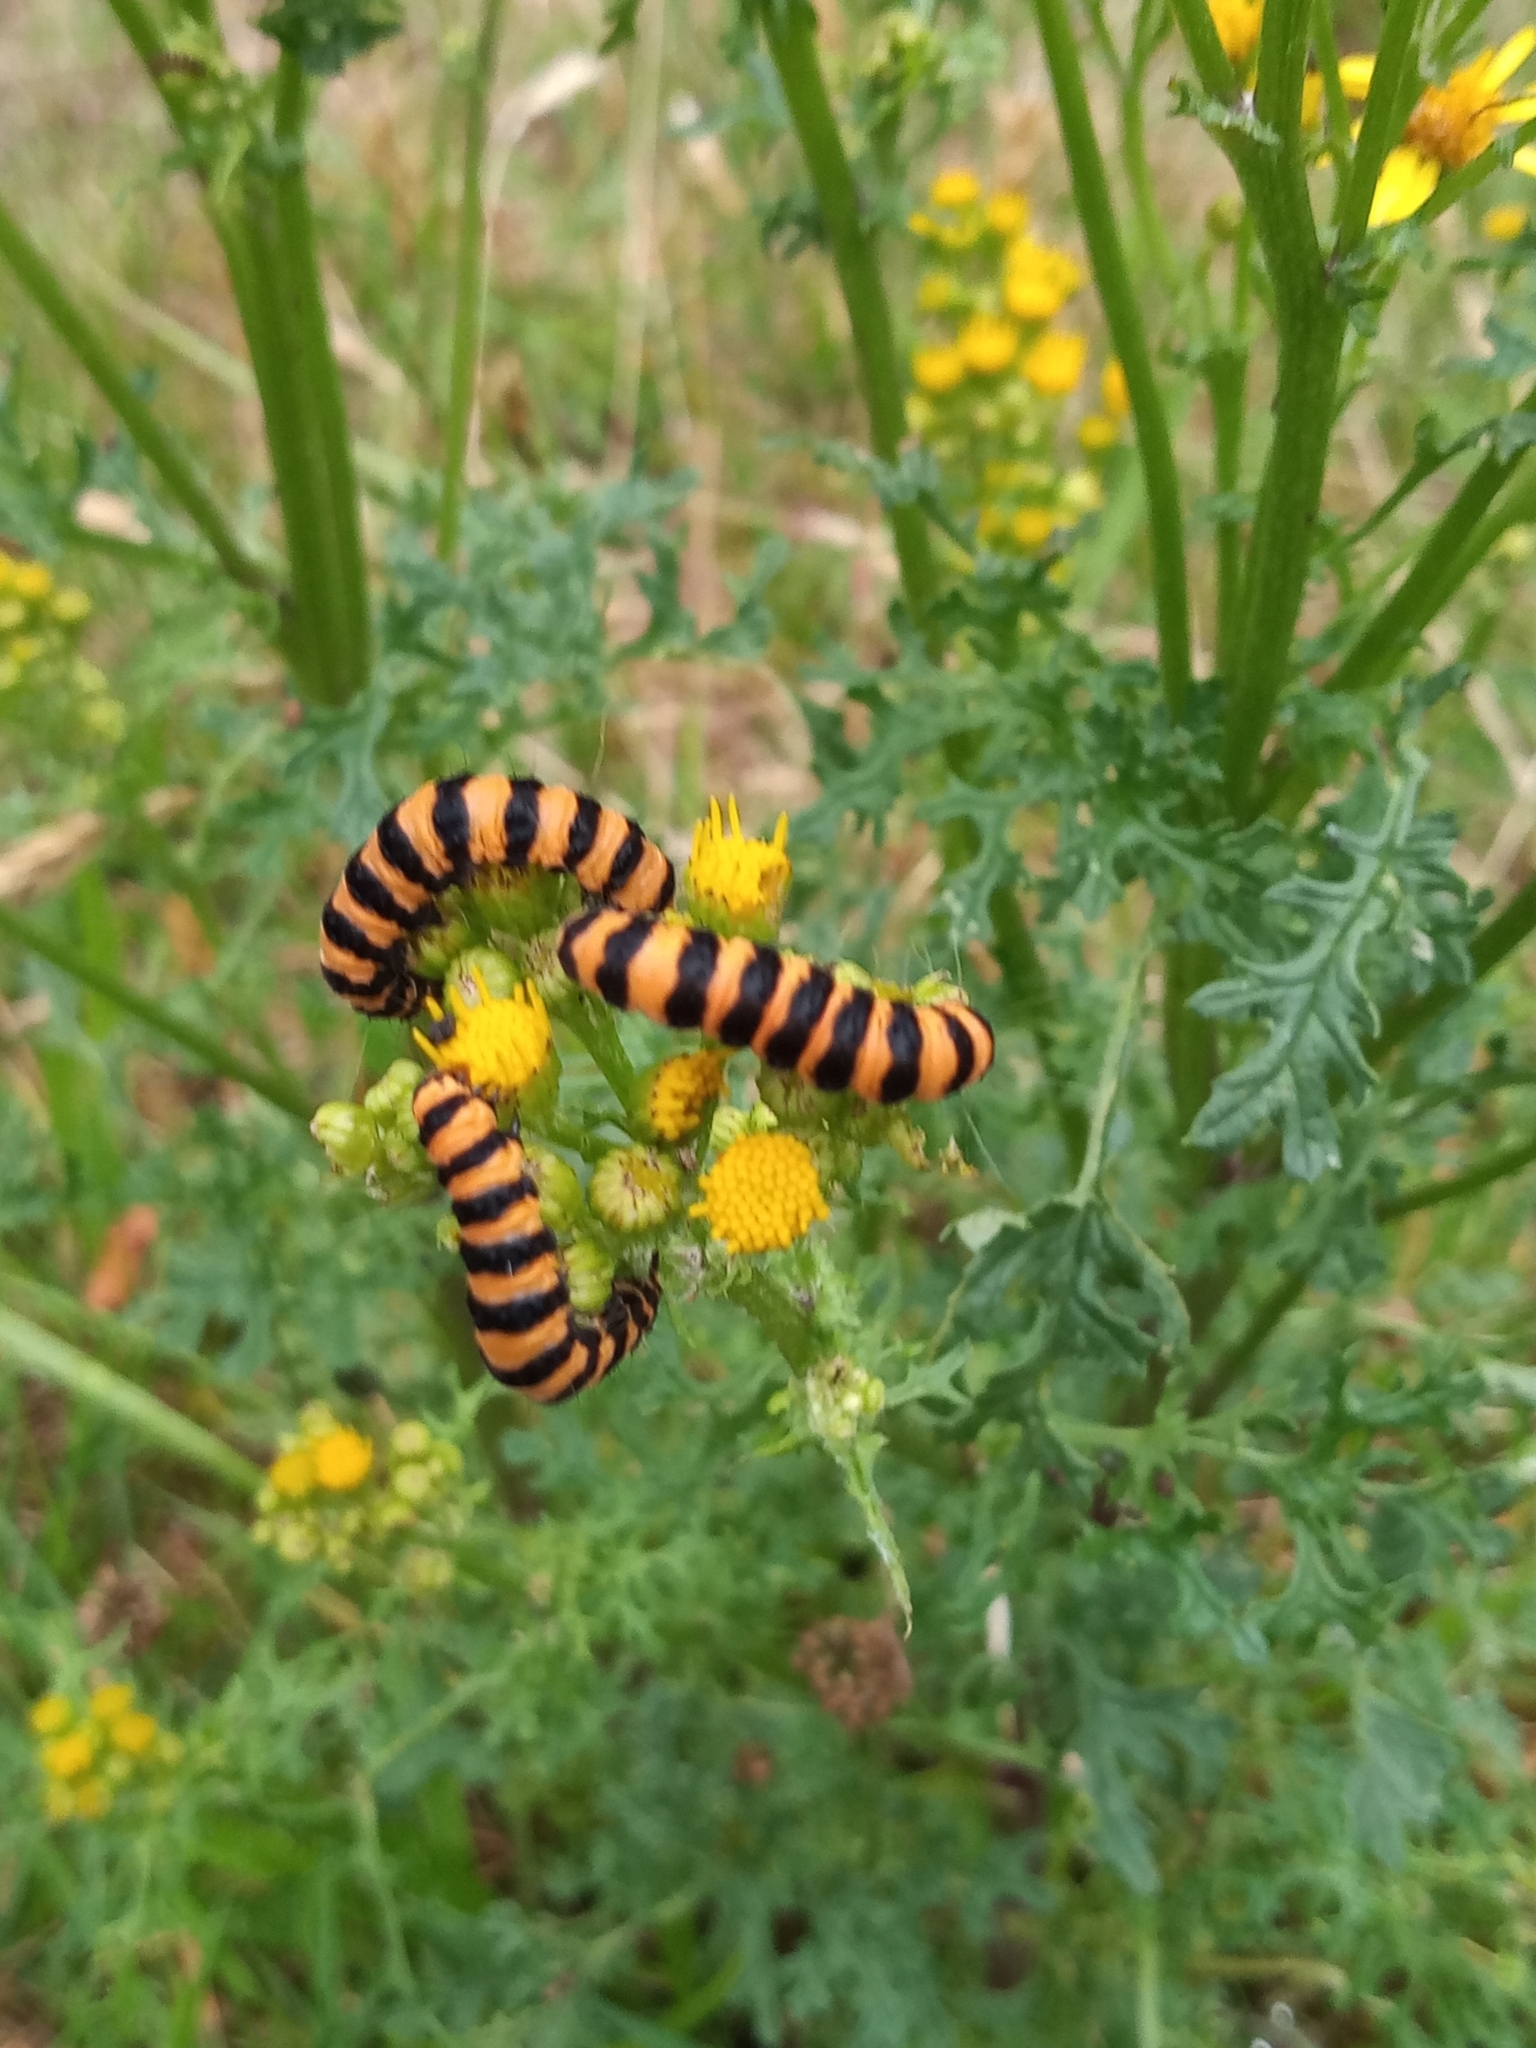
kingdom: Animalia
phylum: Arthropoda
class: Insecta
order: Lepidoptera
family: Erebidae
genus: Tyria
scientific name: Tyria jacobaeae
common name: Cinnabar
